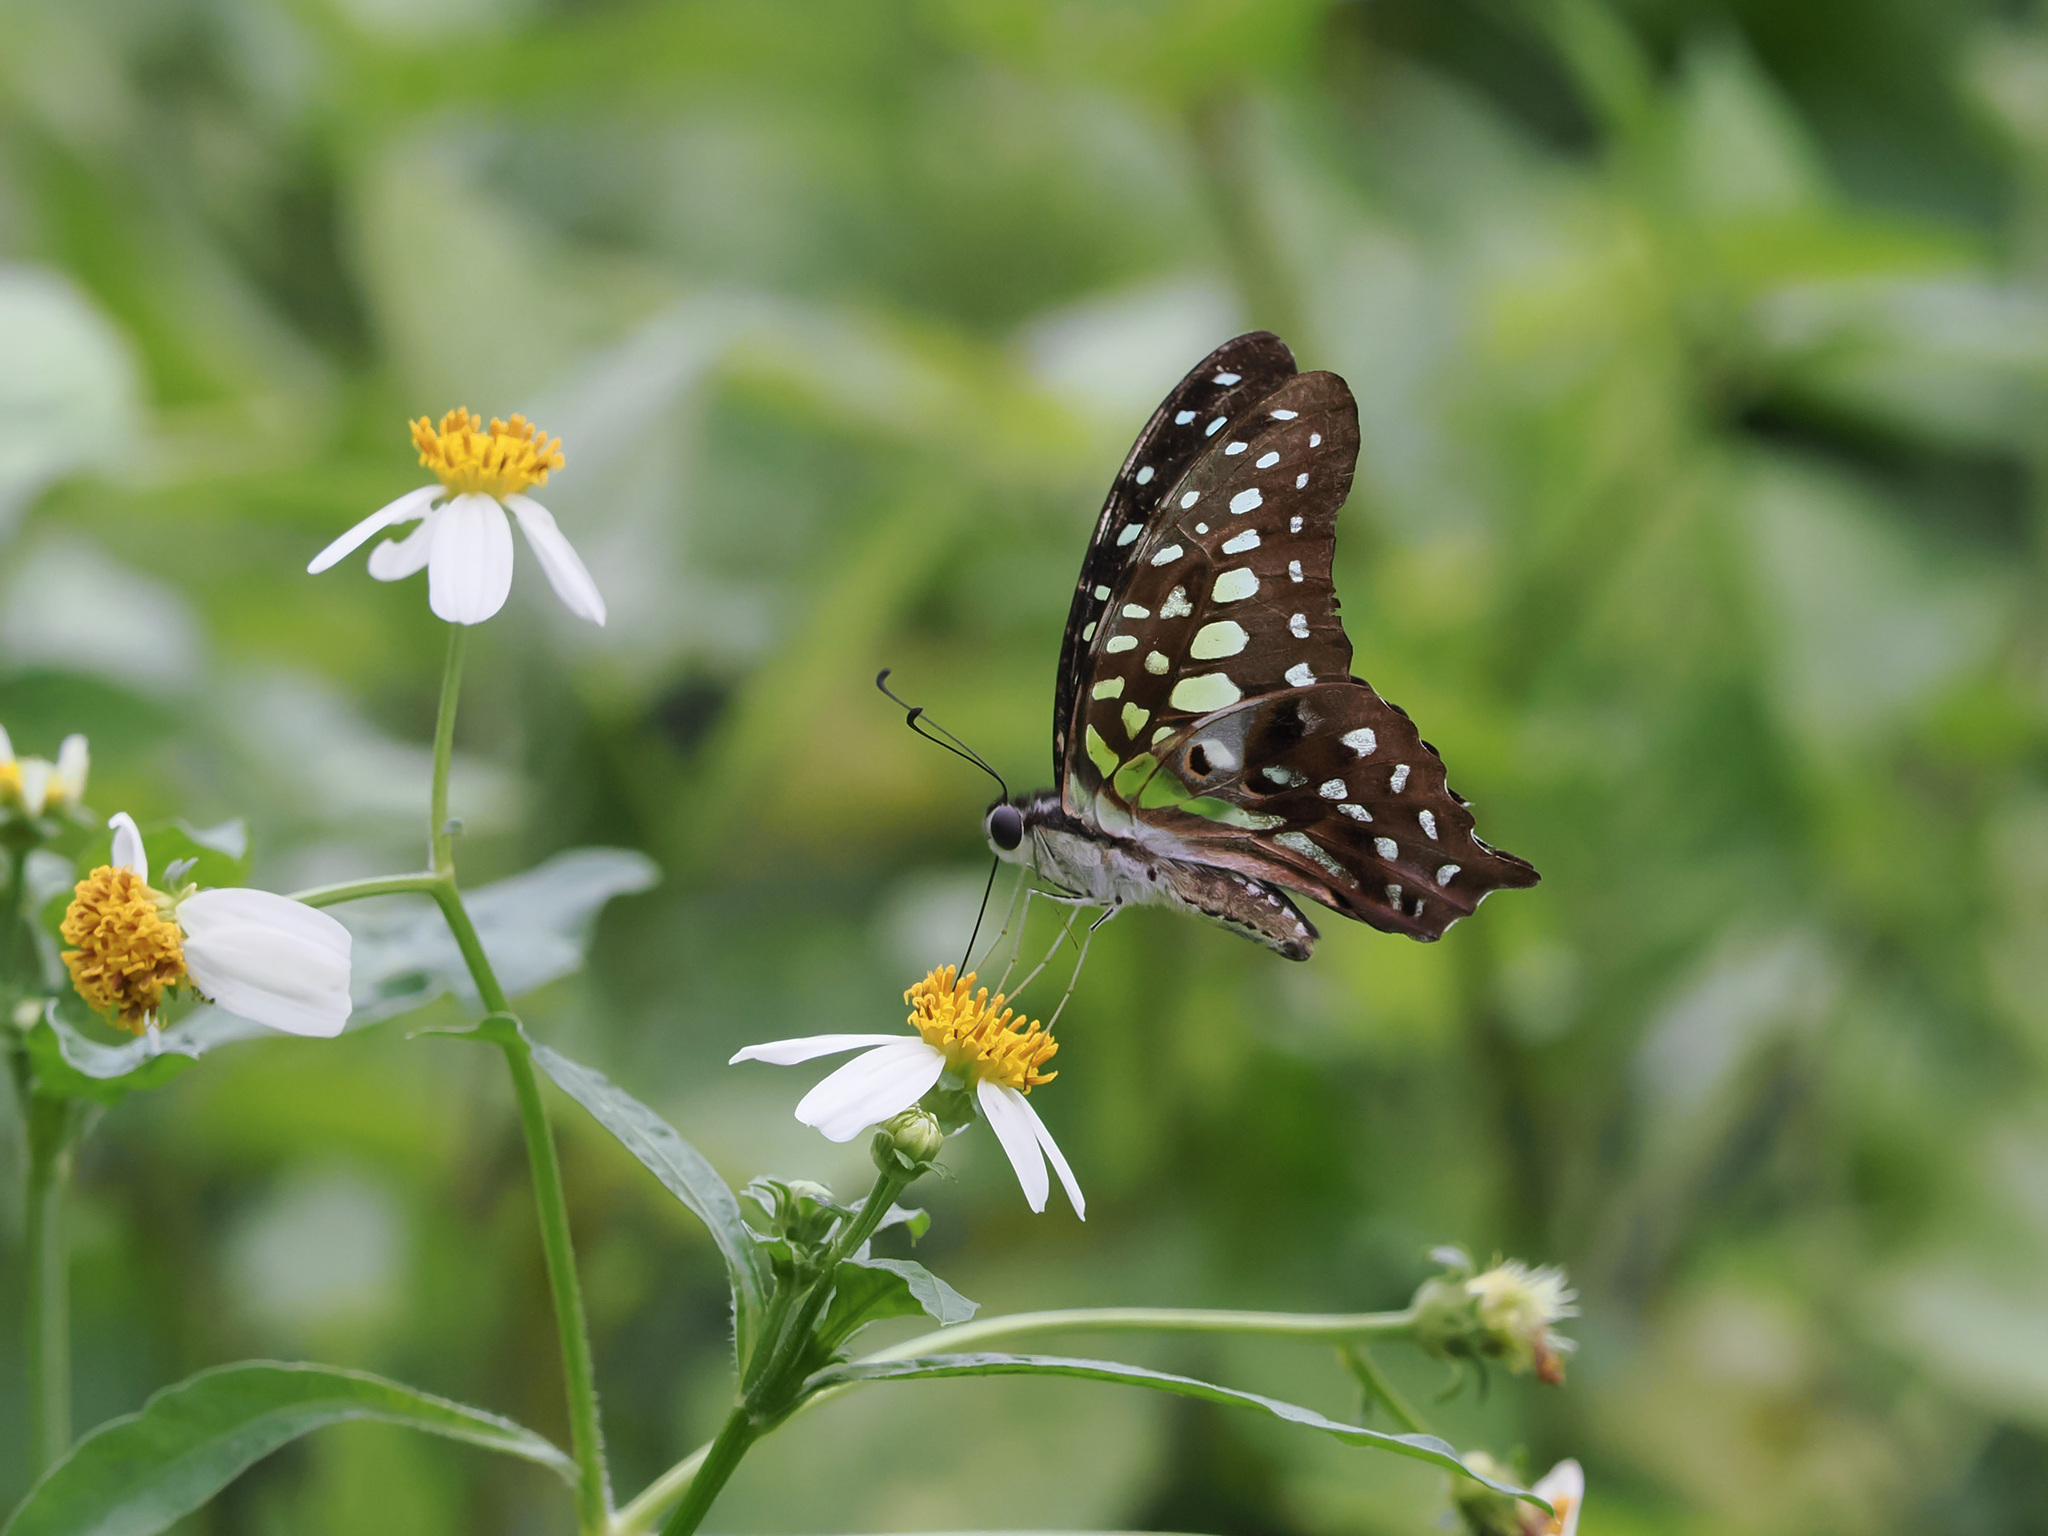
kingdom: Animalia
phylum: Arthropoda
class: Insecta
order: Lepidoptera
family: Papilionidae
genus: Graphium
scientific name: Graphium agamemnon
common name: Tailed jay
